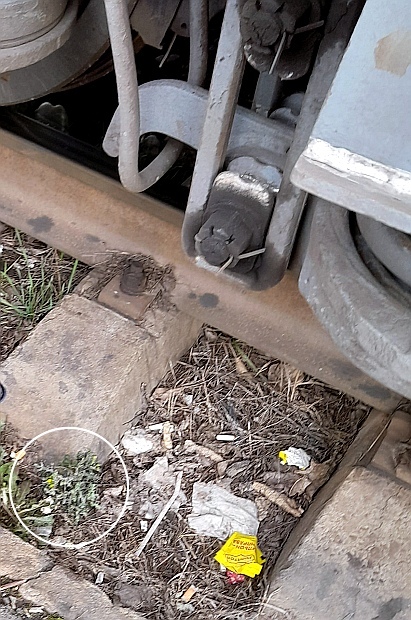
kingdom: Plantae
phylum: Tracheophyta
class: Magnoliopsida
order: Asterales
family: Asteraceae
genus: Senecio
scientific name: Senecio vulgaris
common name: Old-man-in-the-spring
